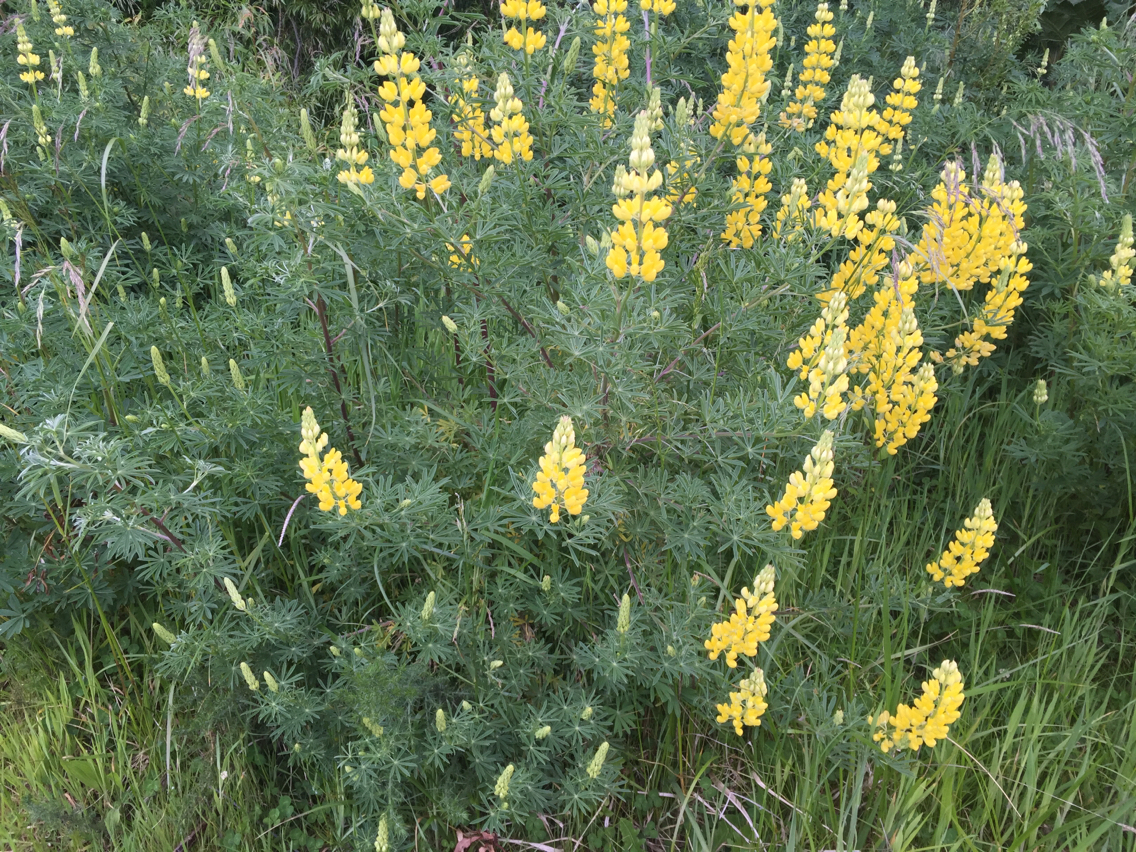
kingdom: Plantae
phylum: Tracheophyta
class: Magnoliopsida
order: Fabales
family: Fabaceae
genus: Lupinus
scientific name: Lupinus arboreus
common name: Yellow bush lupine
